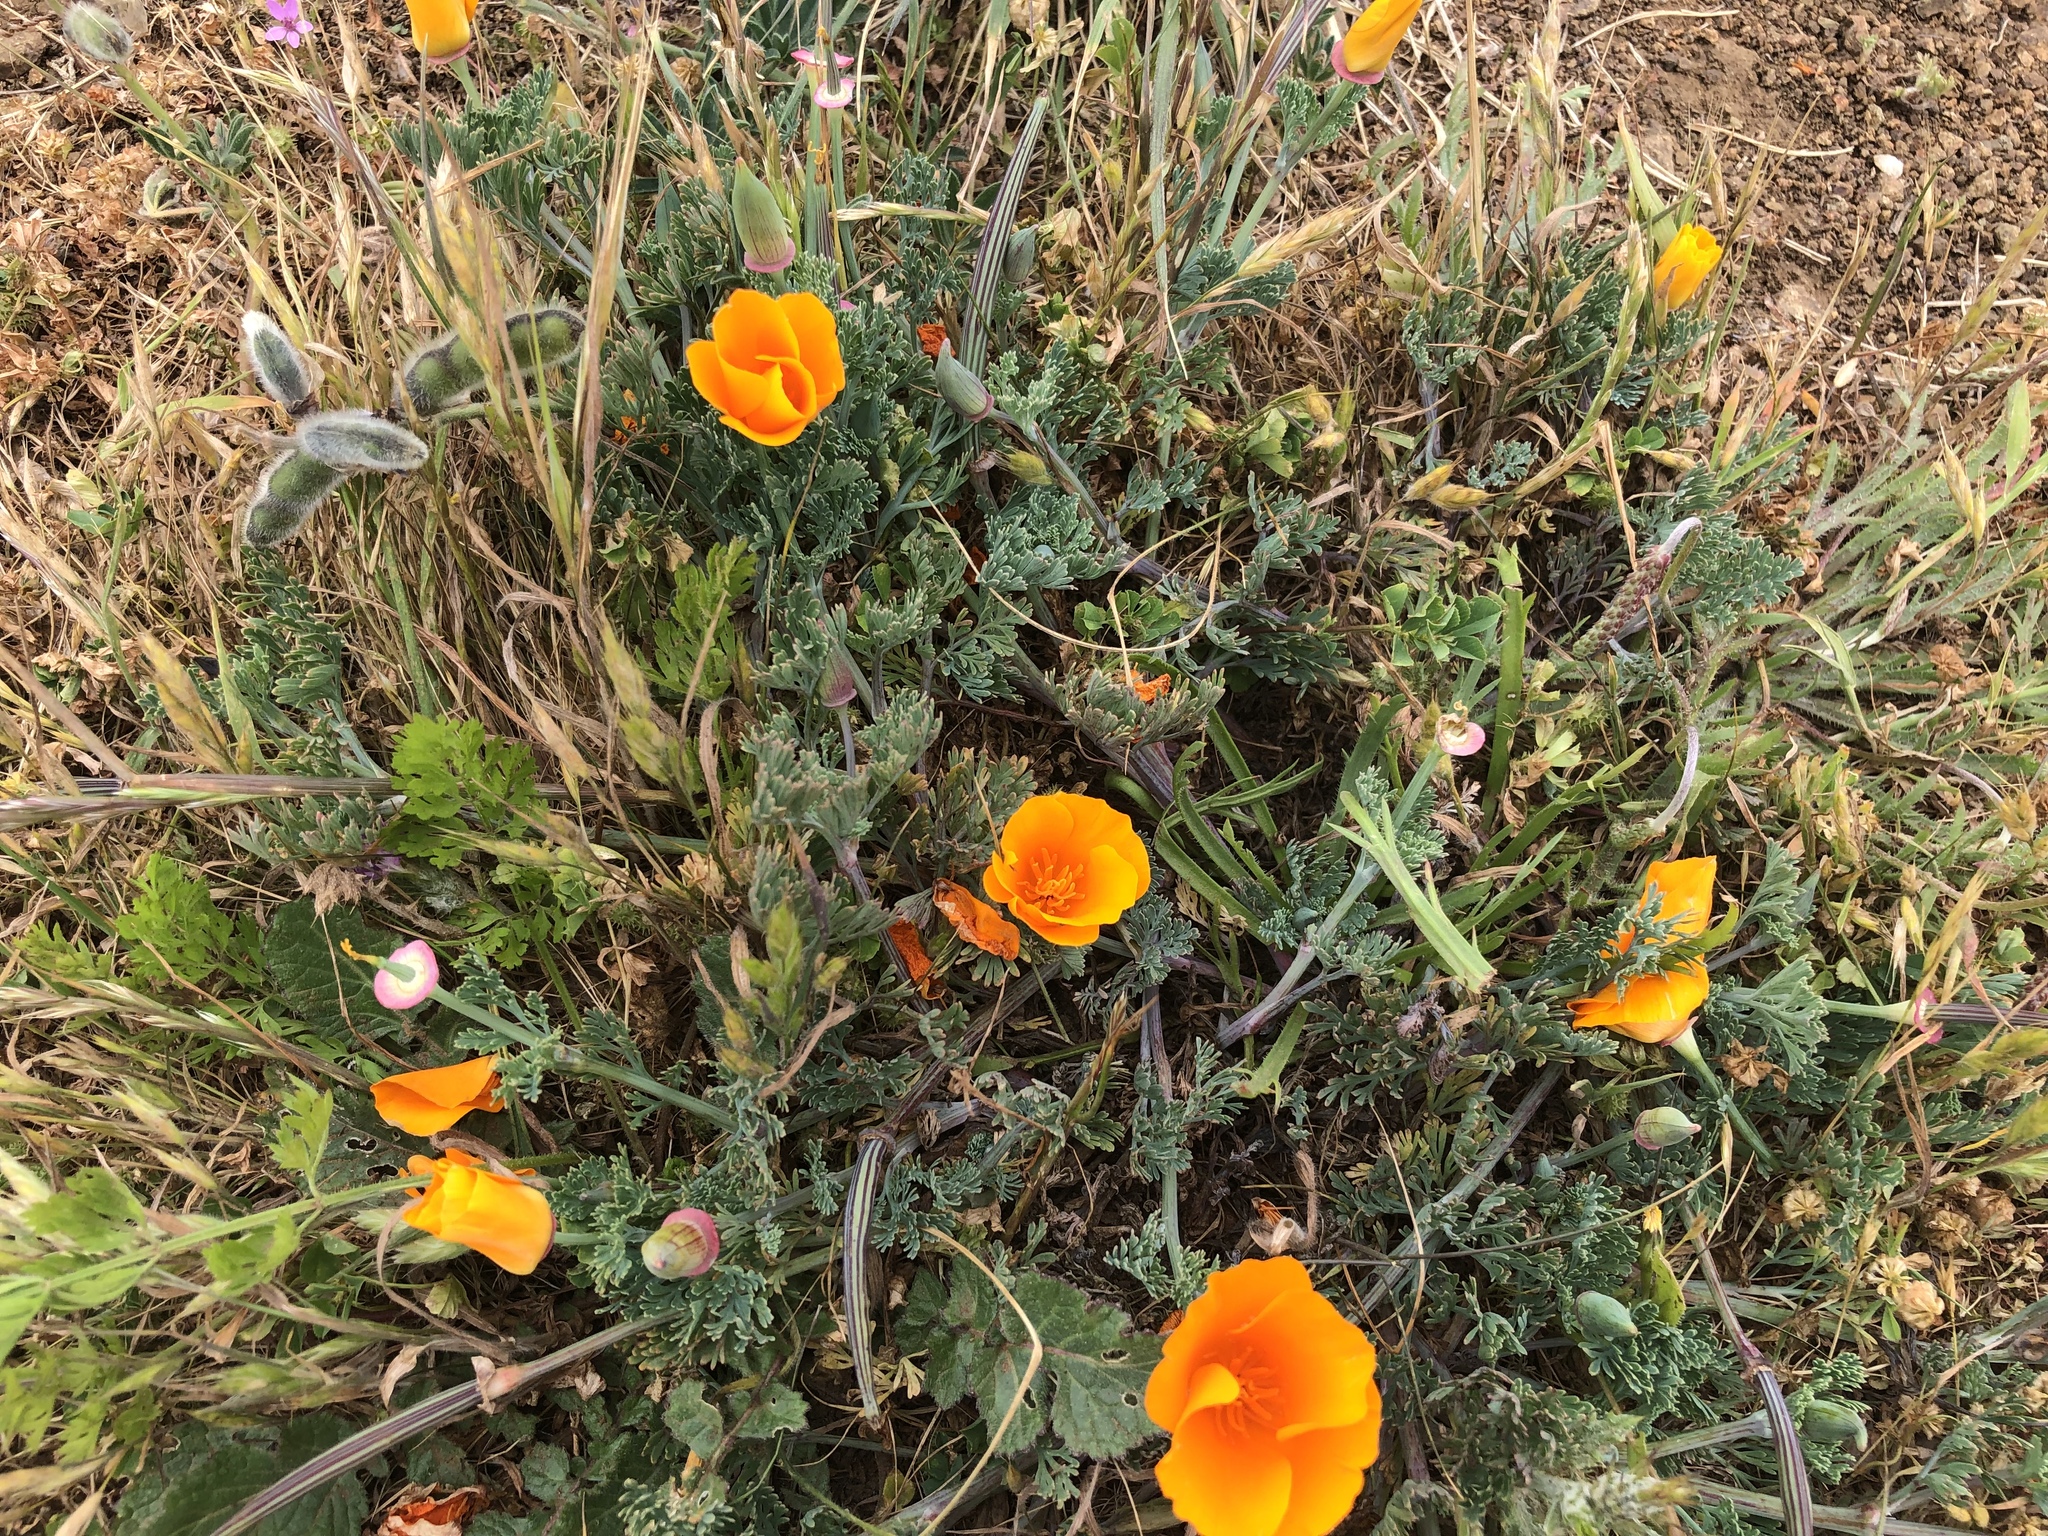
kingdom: Plantae
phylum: Tracheophyta
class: Magnoliopsida
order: Ranunculales
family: Papaveraceae
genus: Eschscholzia
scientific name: Eschscholzia californica
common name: California poppy
